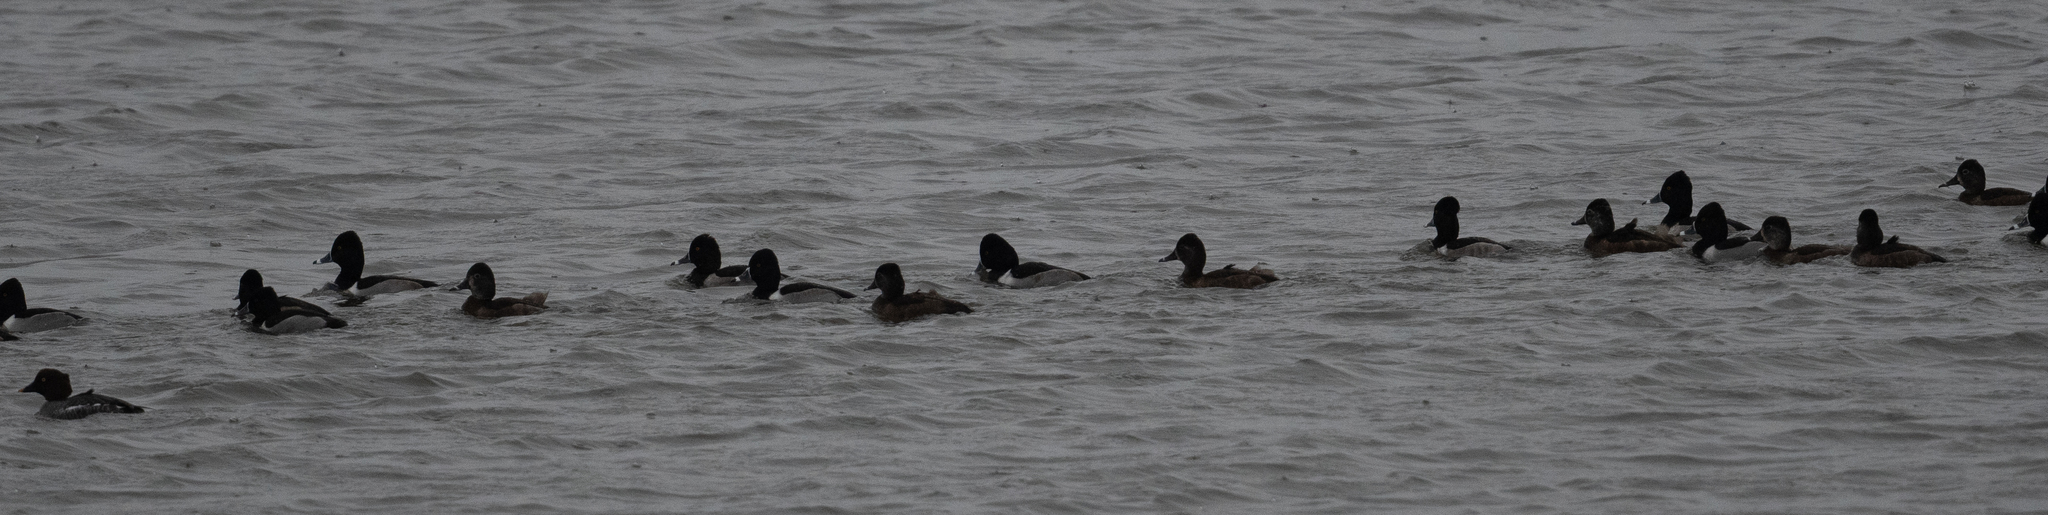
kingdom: Animalia
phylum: Chordata
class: Aves
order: Anseriformes
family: Anatidae
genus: Aythya
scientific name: Aythya collaris
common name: Ring-necked duck
